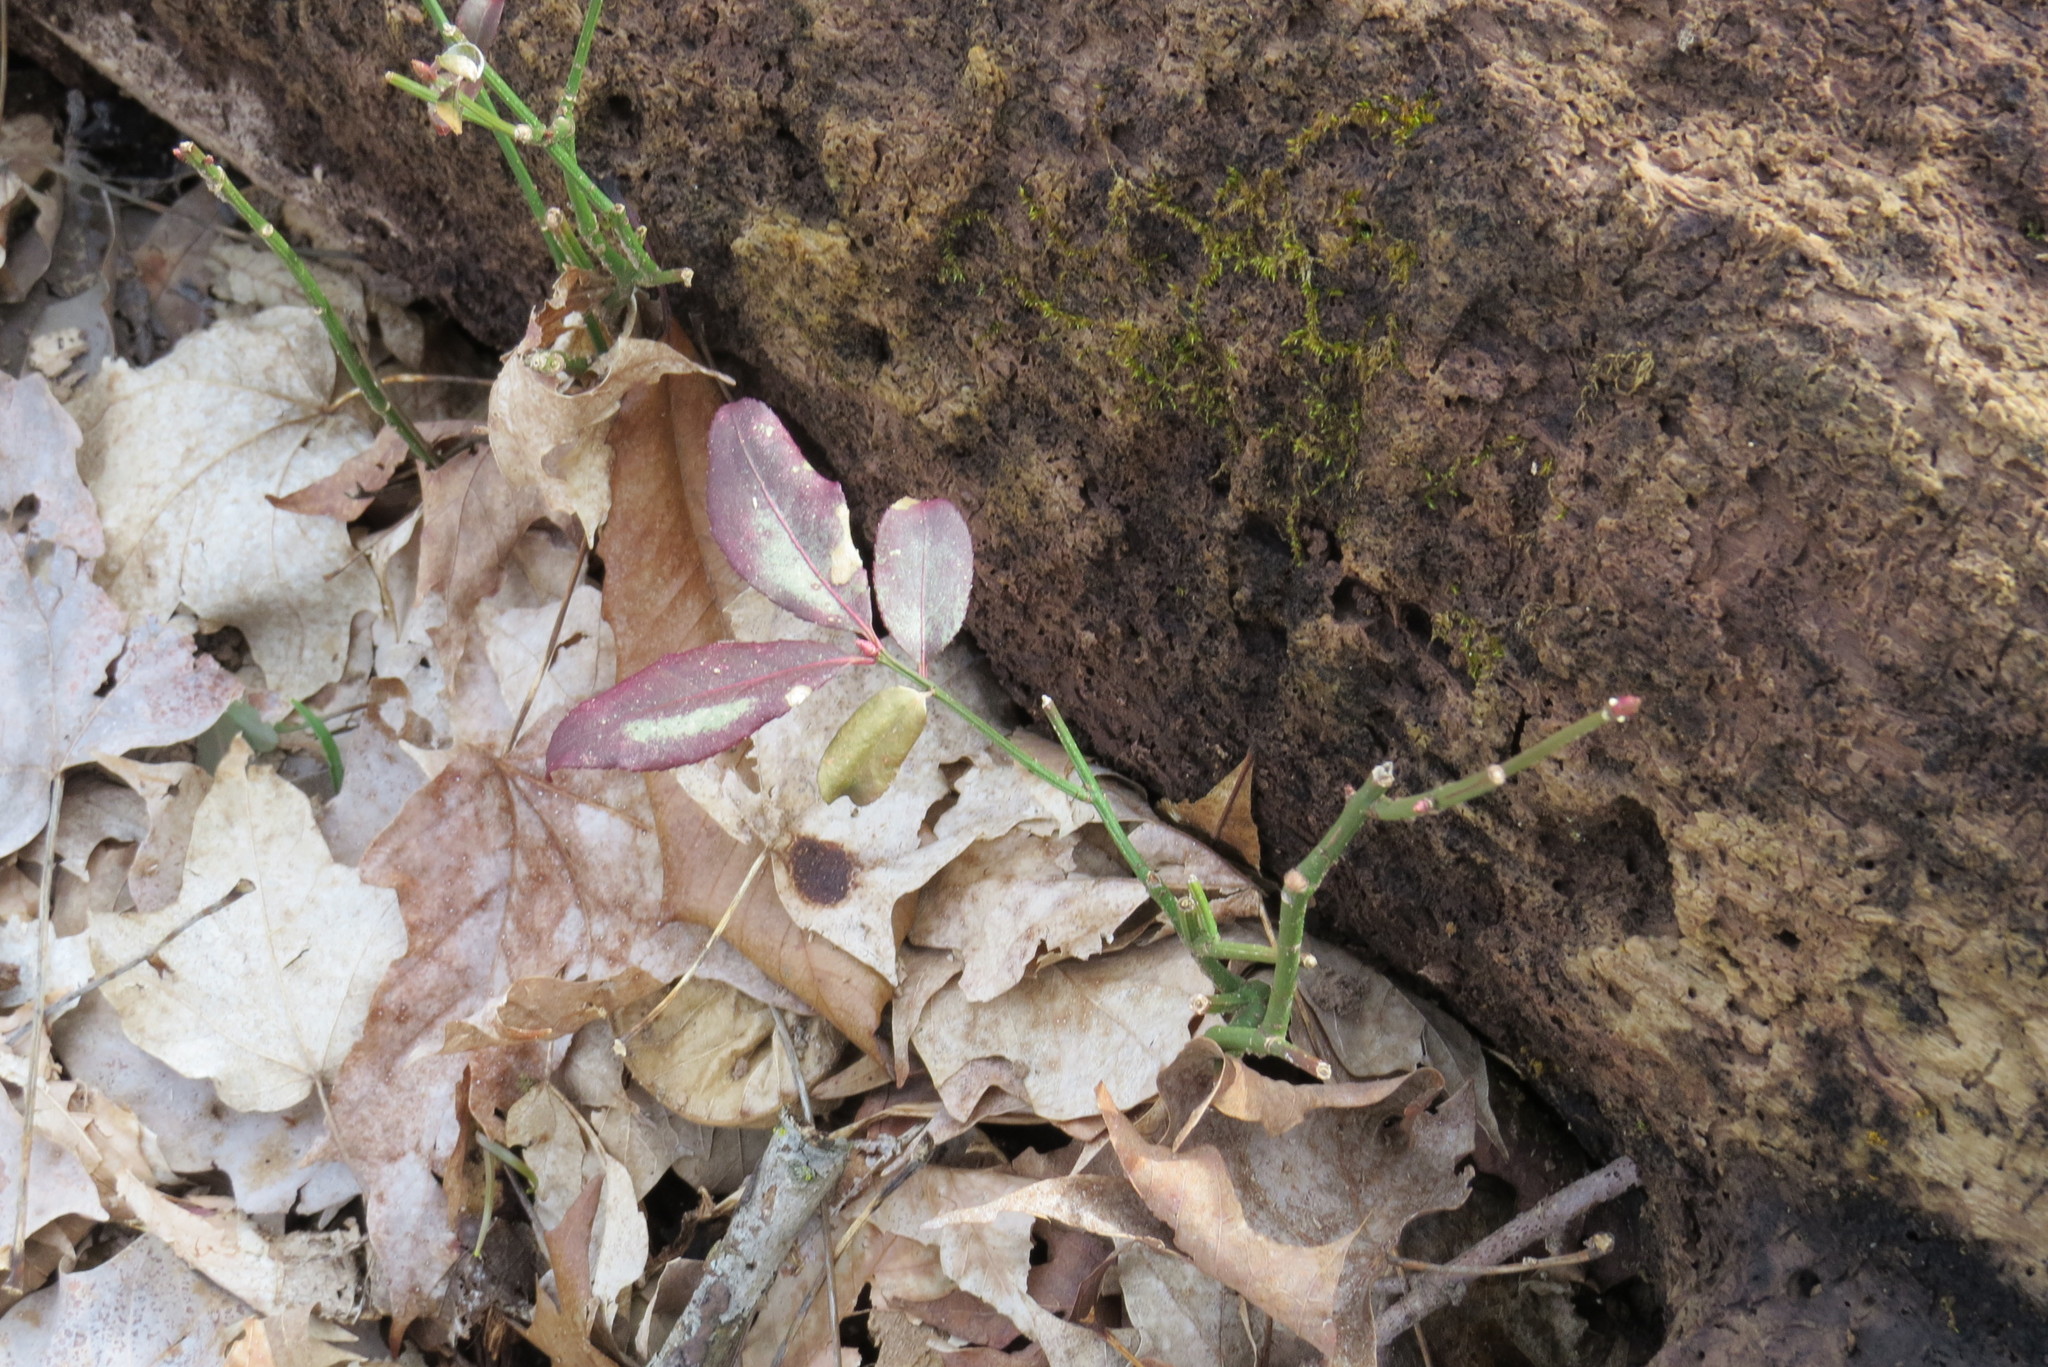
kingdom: Plantae
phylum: Tracheophyta
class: Magnoliopsida
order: Celastrales
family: Celastraceae
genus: Euonymus
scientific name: Euonymus alatus
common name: Winged euonymus
